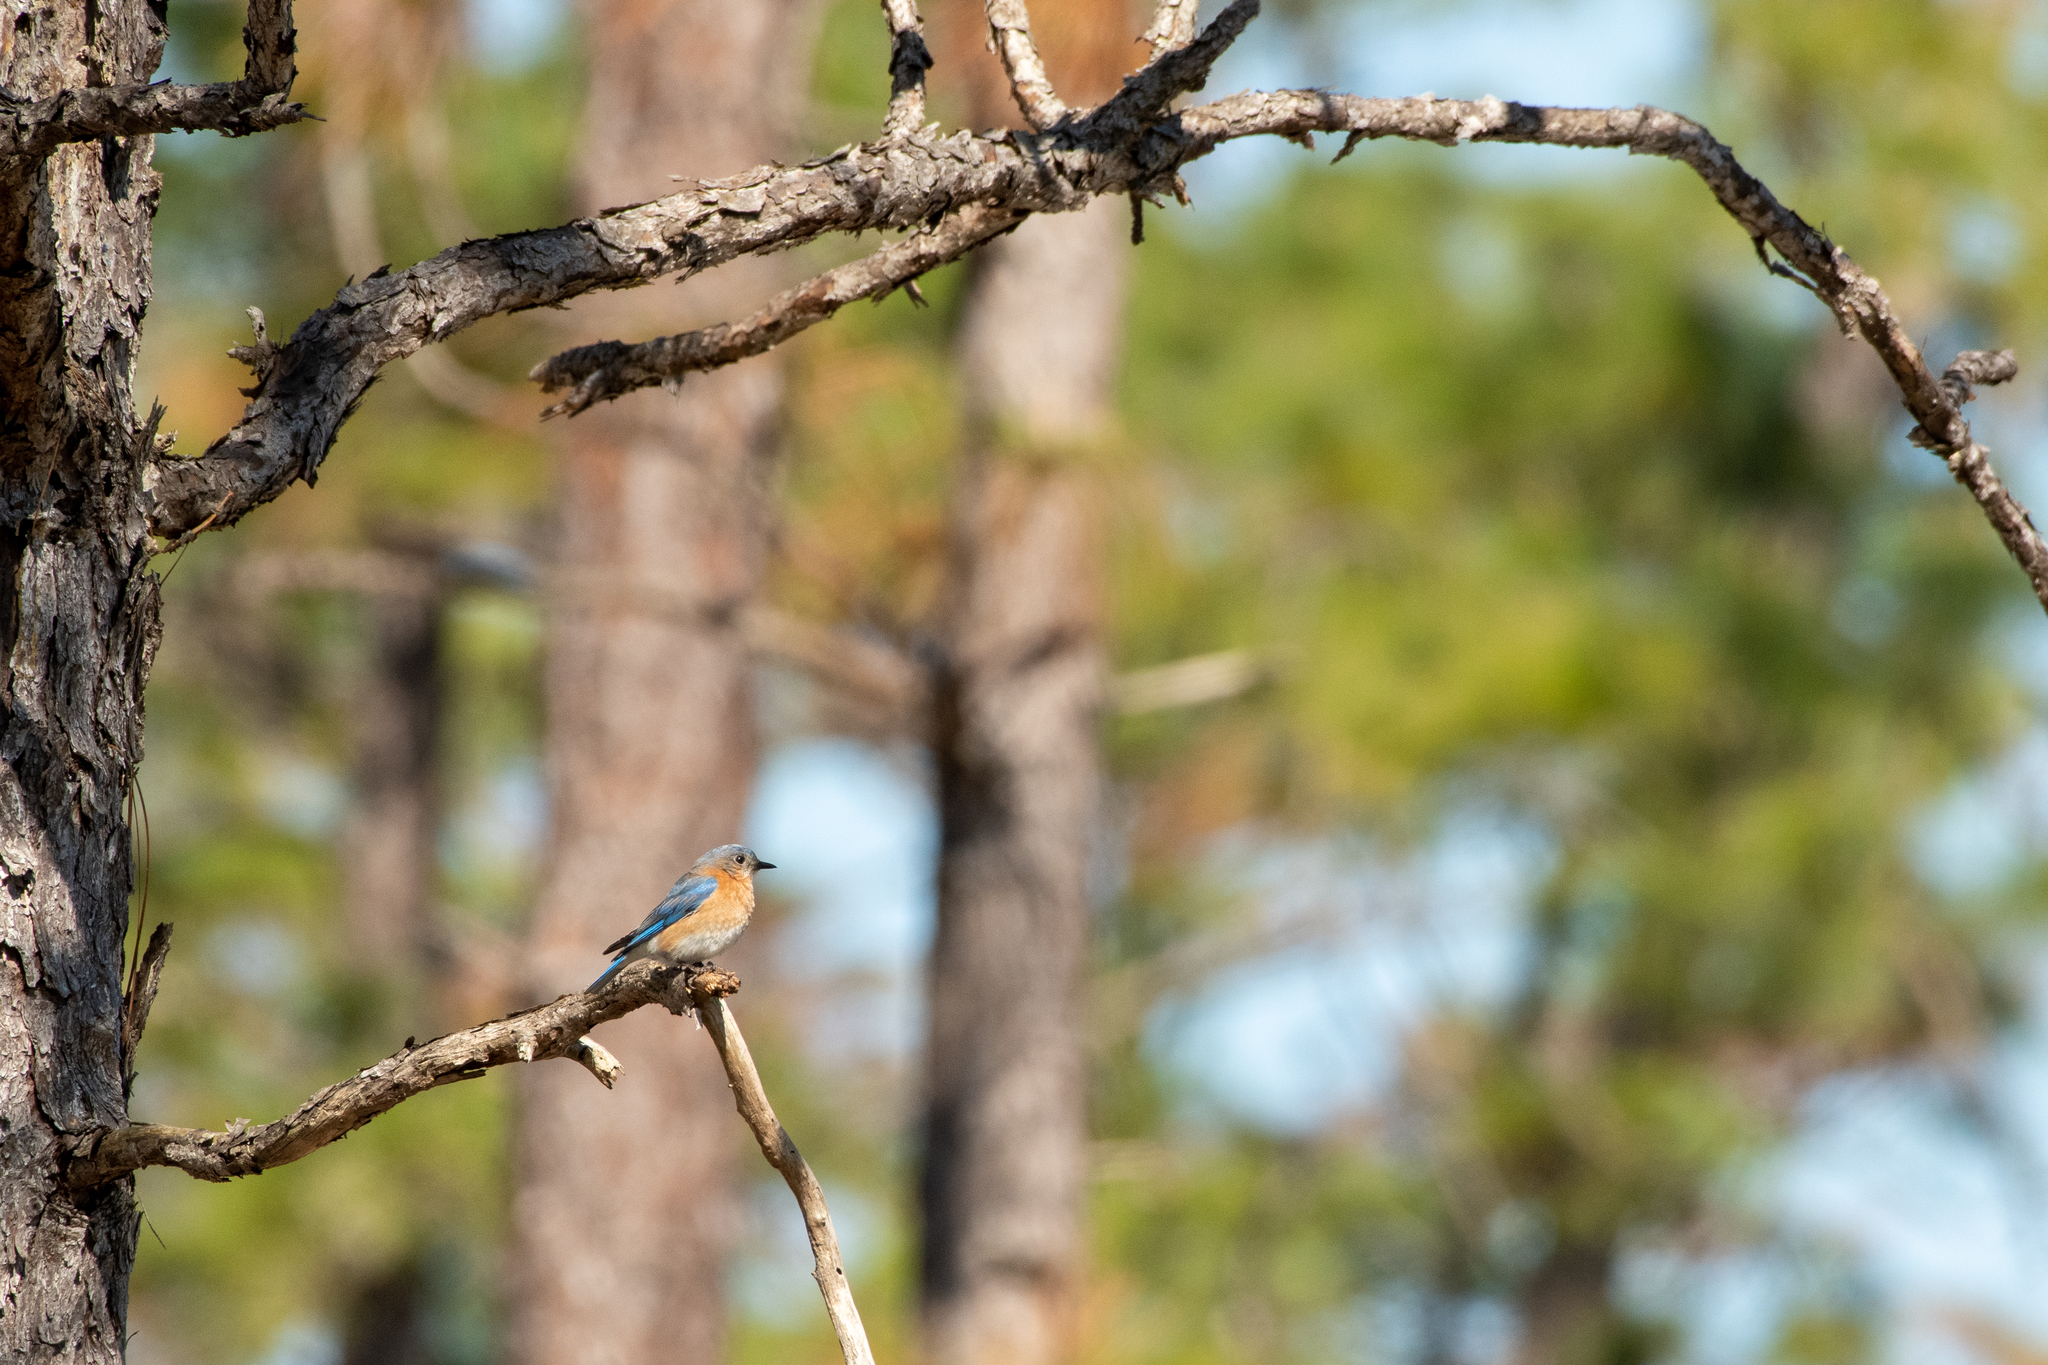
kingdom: Animalia
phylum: Chordata
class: Aves
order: Passeriformes
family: Turdidae
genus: Sialia
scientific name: Sialia sialis
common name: Eastern bluebird
